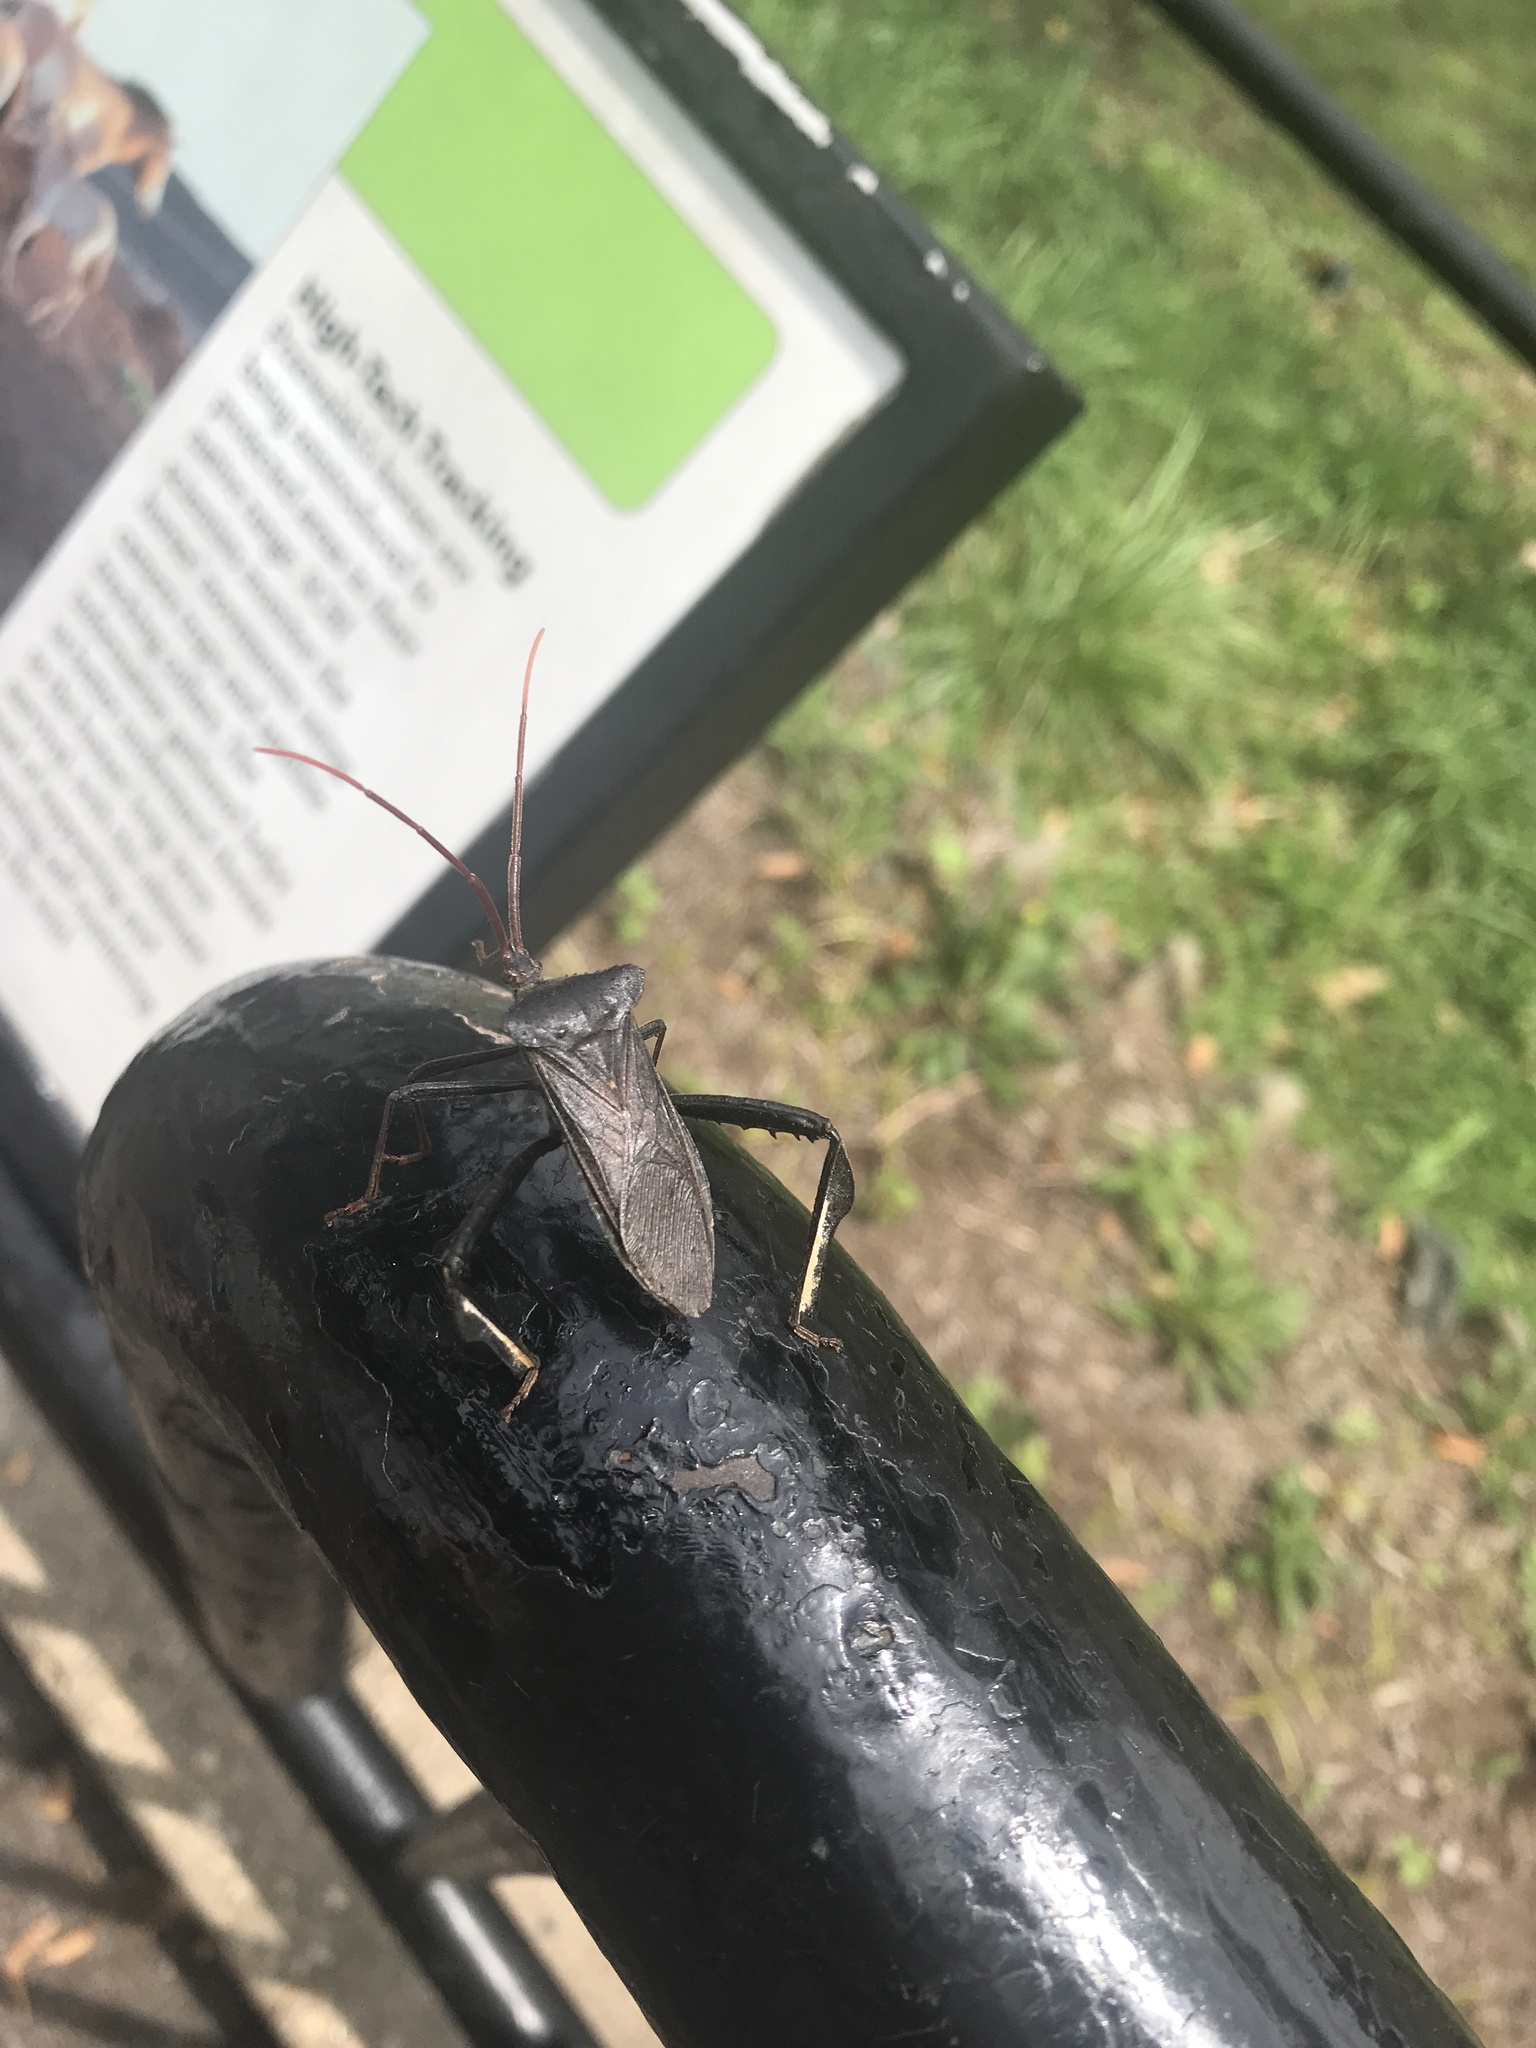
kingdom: Animalia
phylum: Arthropoda
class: Insecta
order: Hemiptera
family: Coreidae
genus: Acanthocephala
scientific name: Acanthocephala declivis
